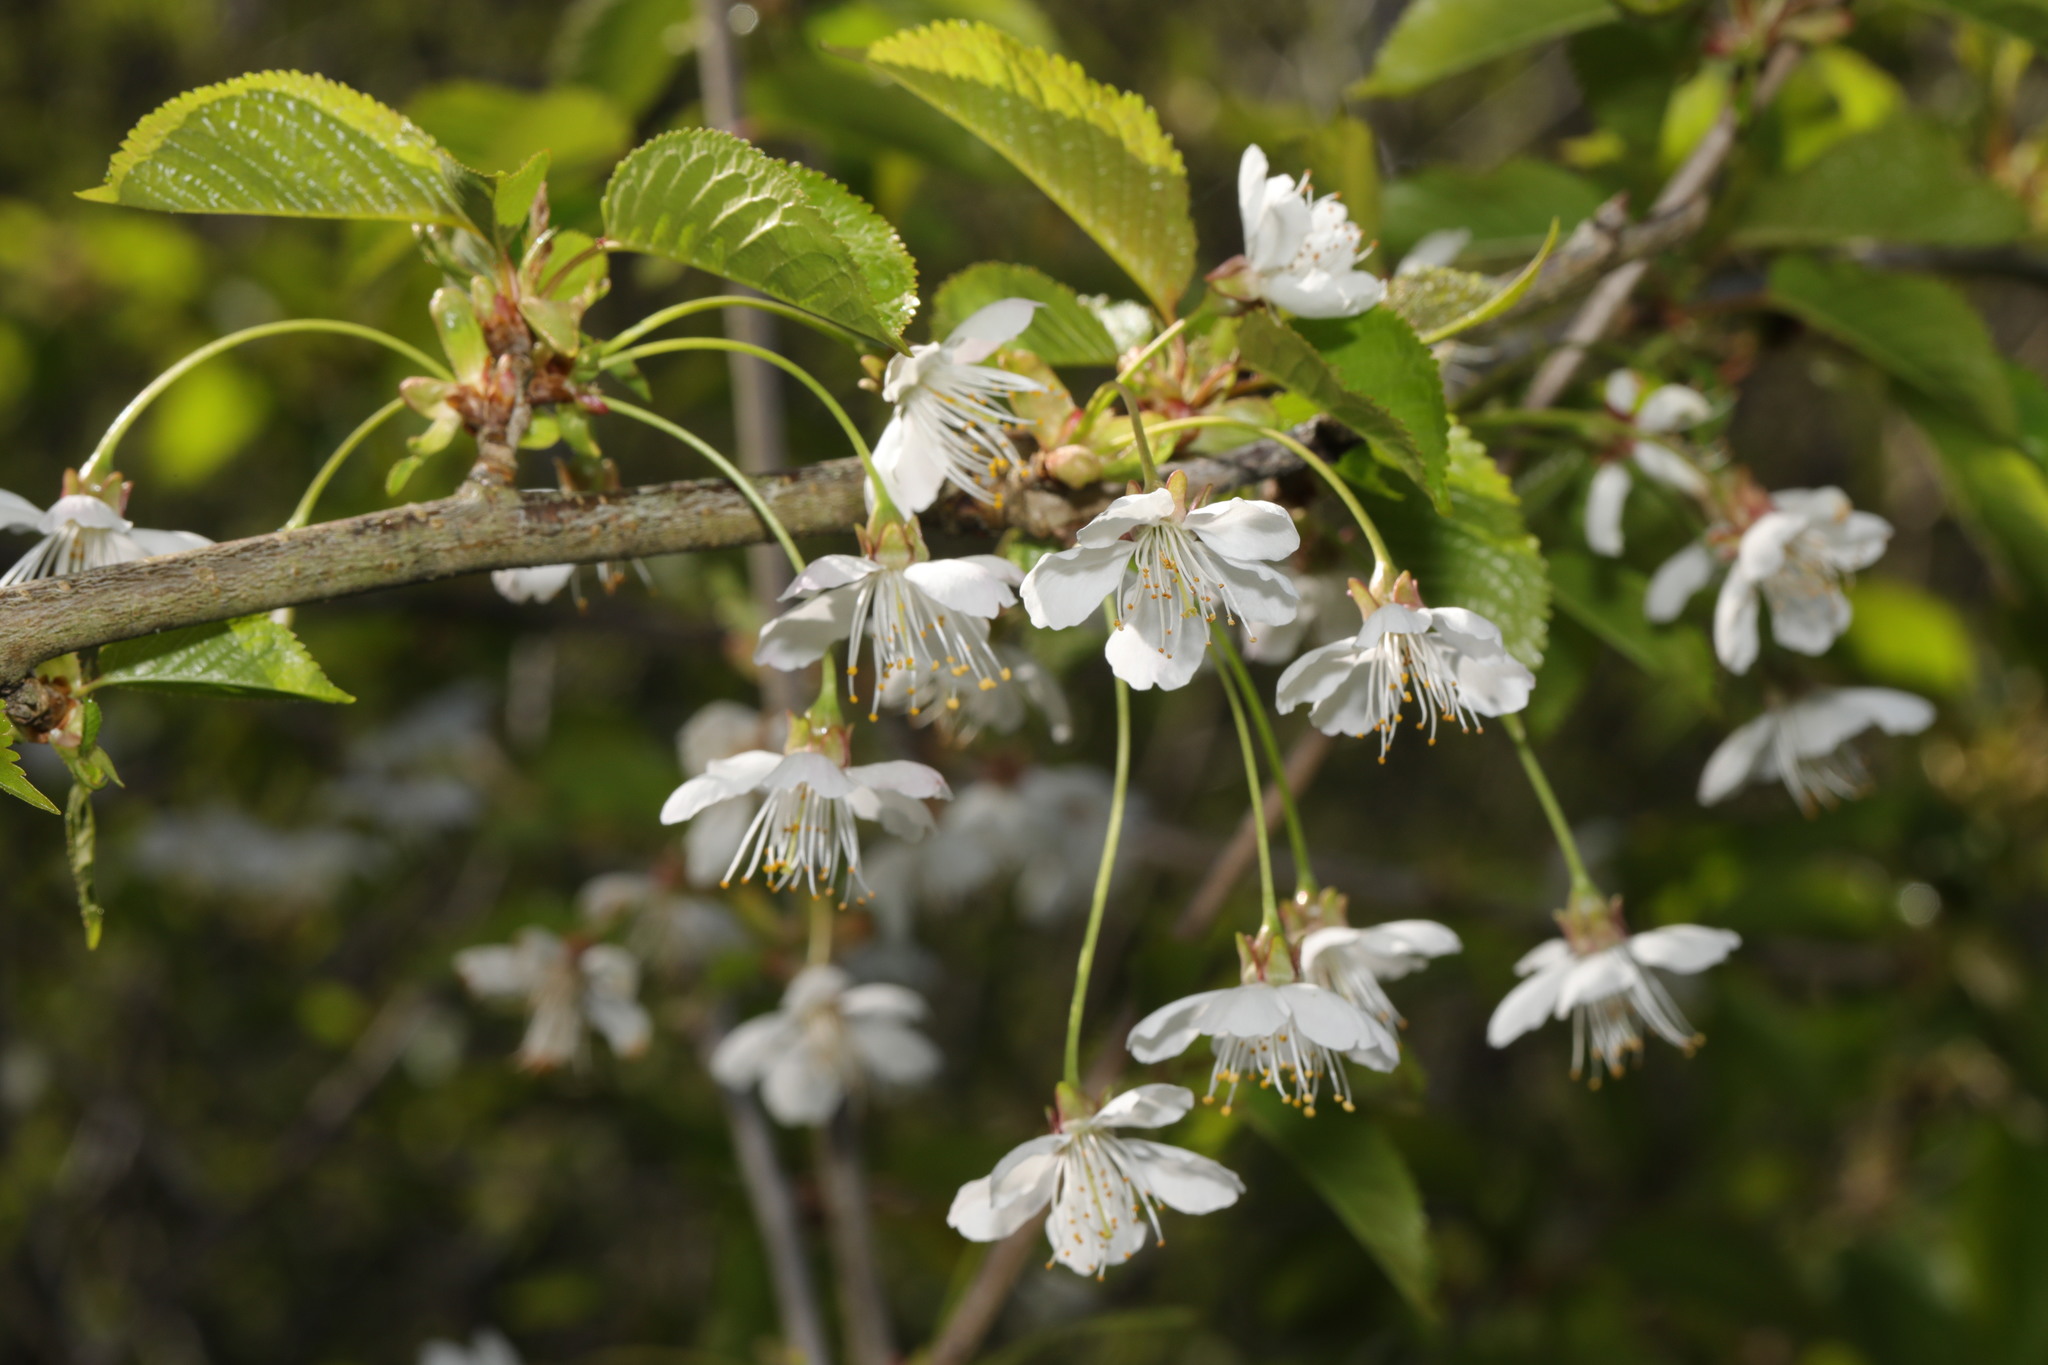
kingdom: Plantae
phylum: Tracheophyta
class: Magnoliopsida
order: Rosales
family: Rosaceae
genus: Prunus
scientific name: Prunus avium
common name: Sweet cherry
